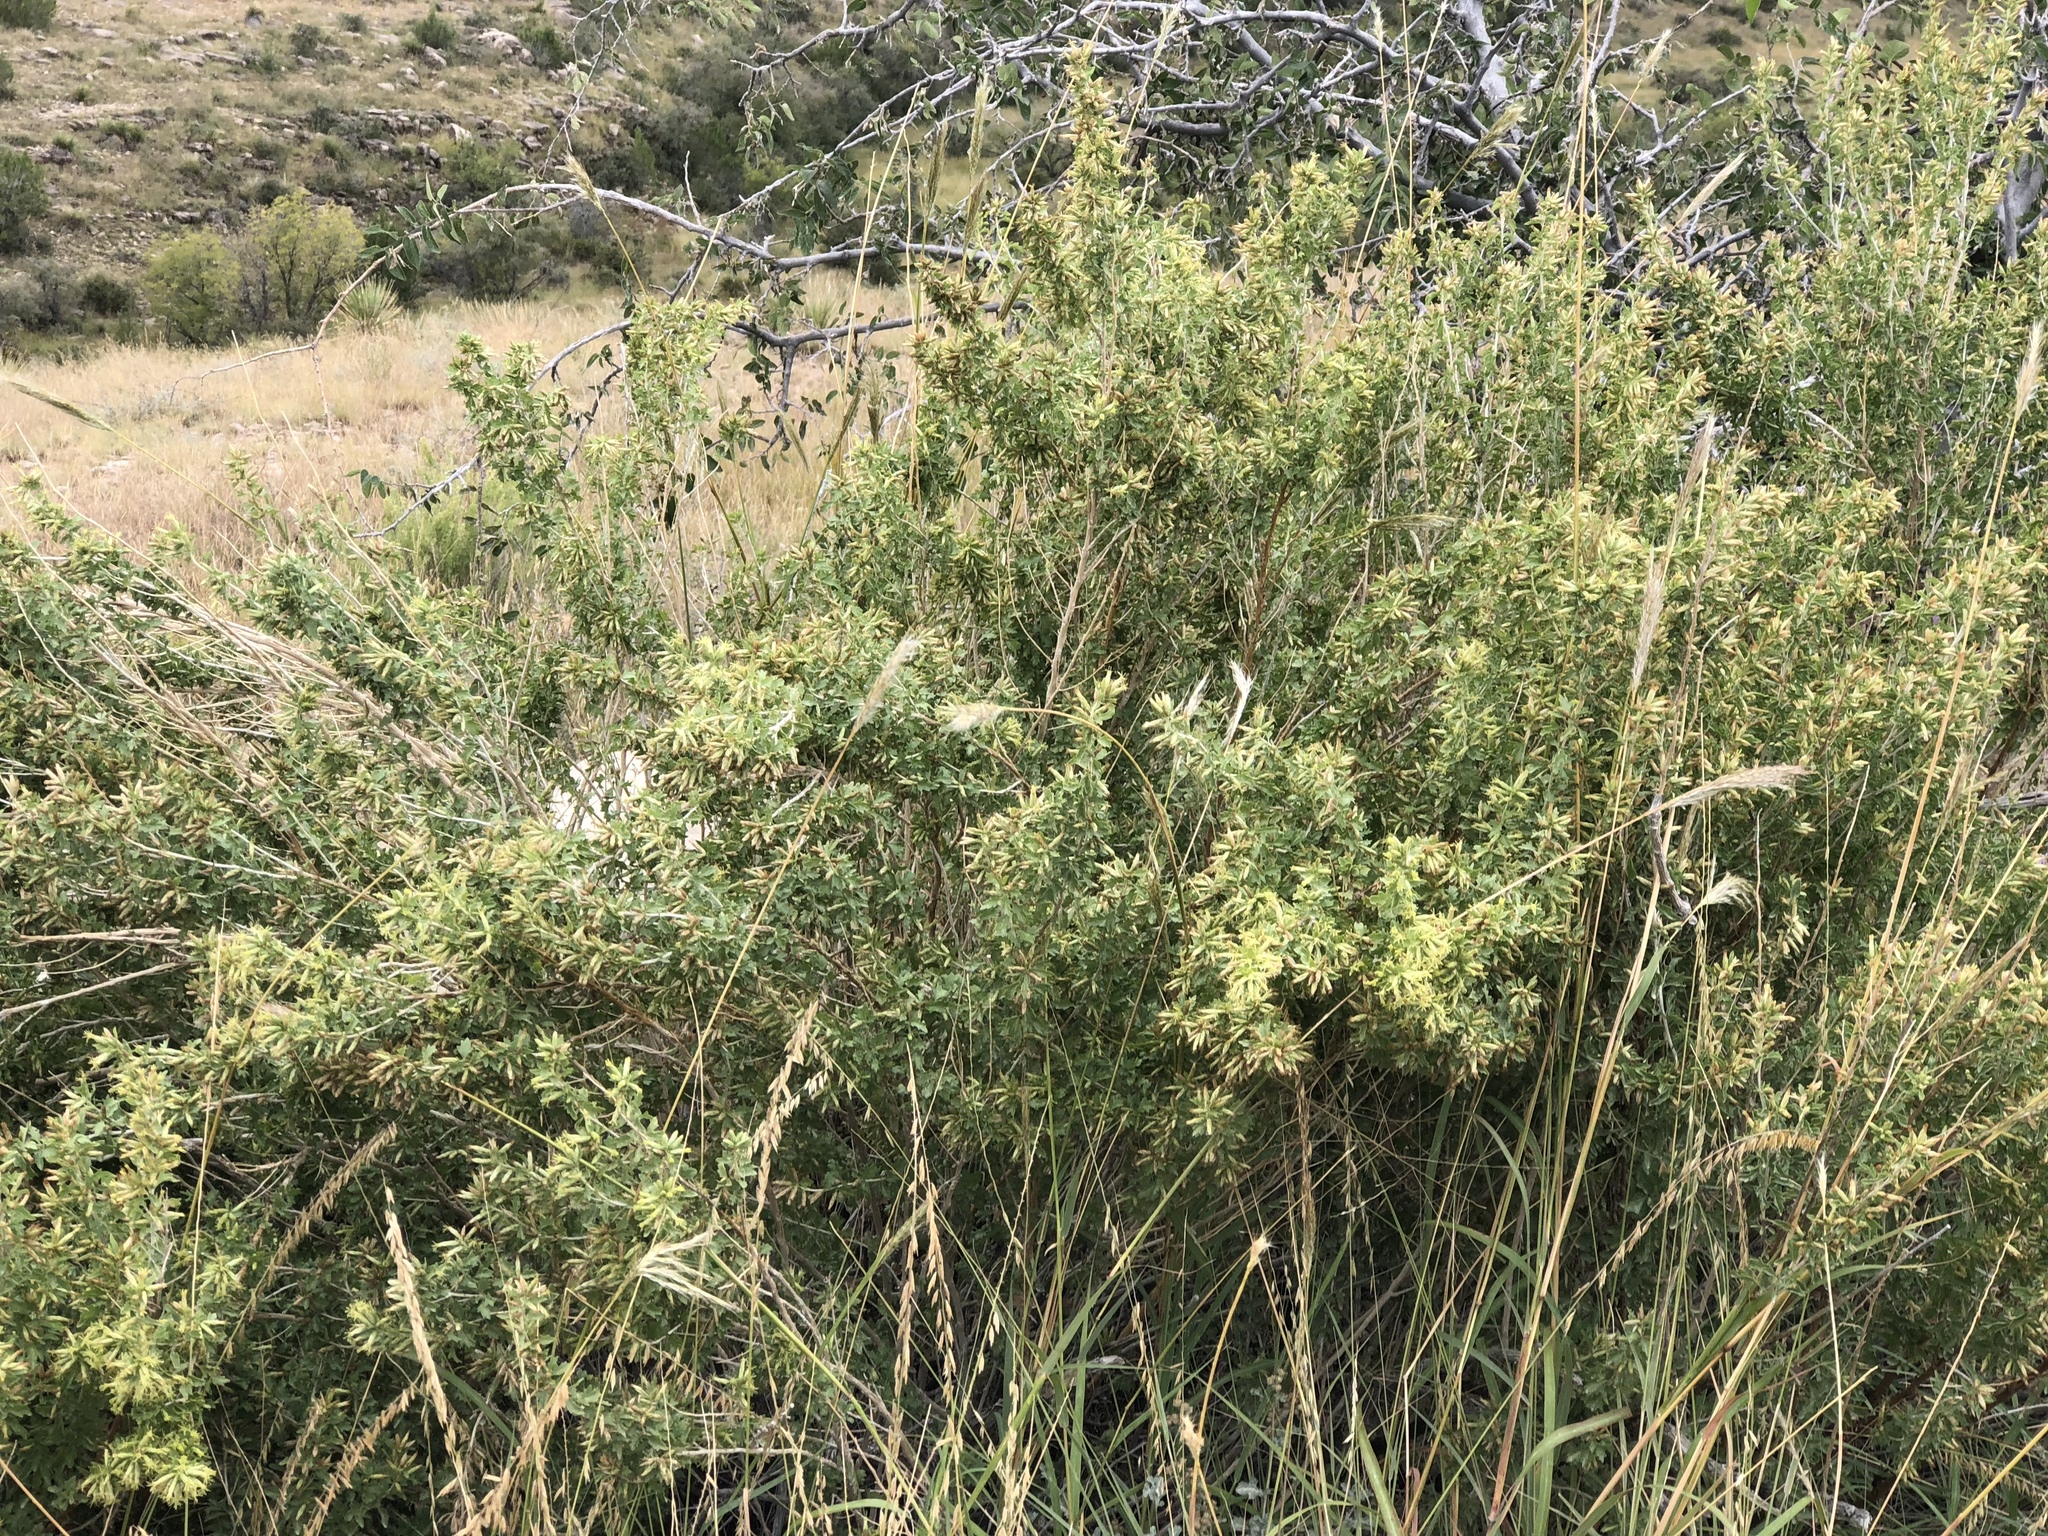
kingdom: Plantae
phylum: Tracheophyta
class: Magnoliopsida
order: Asterales
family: Asteraceae
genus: Brickellia
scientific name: Brickellia laciniata
